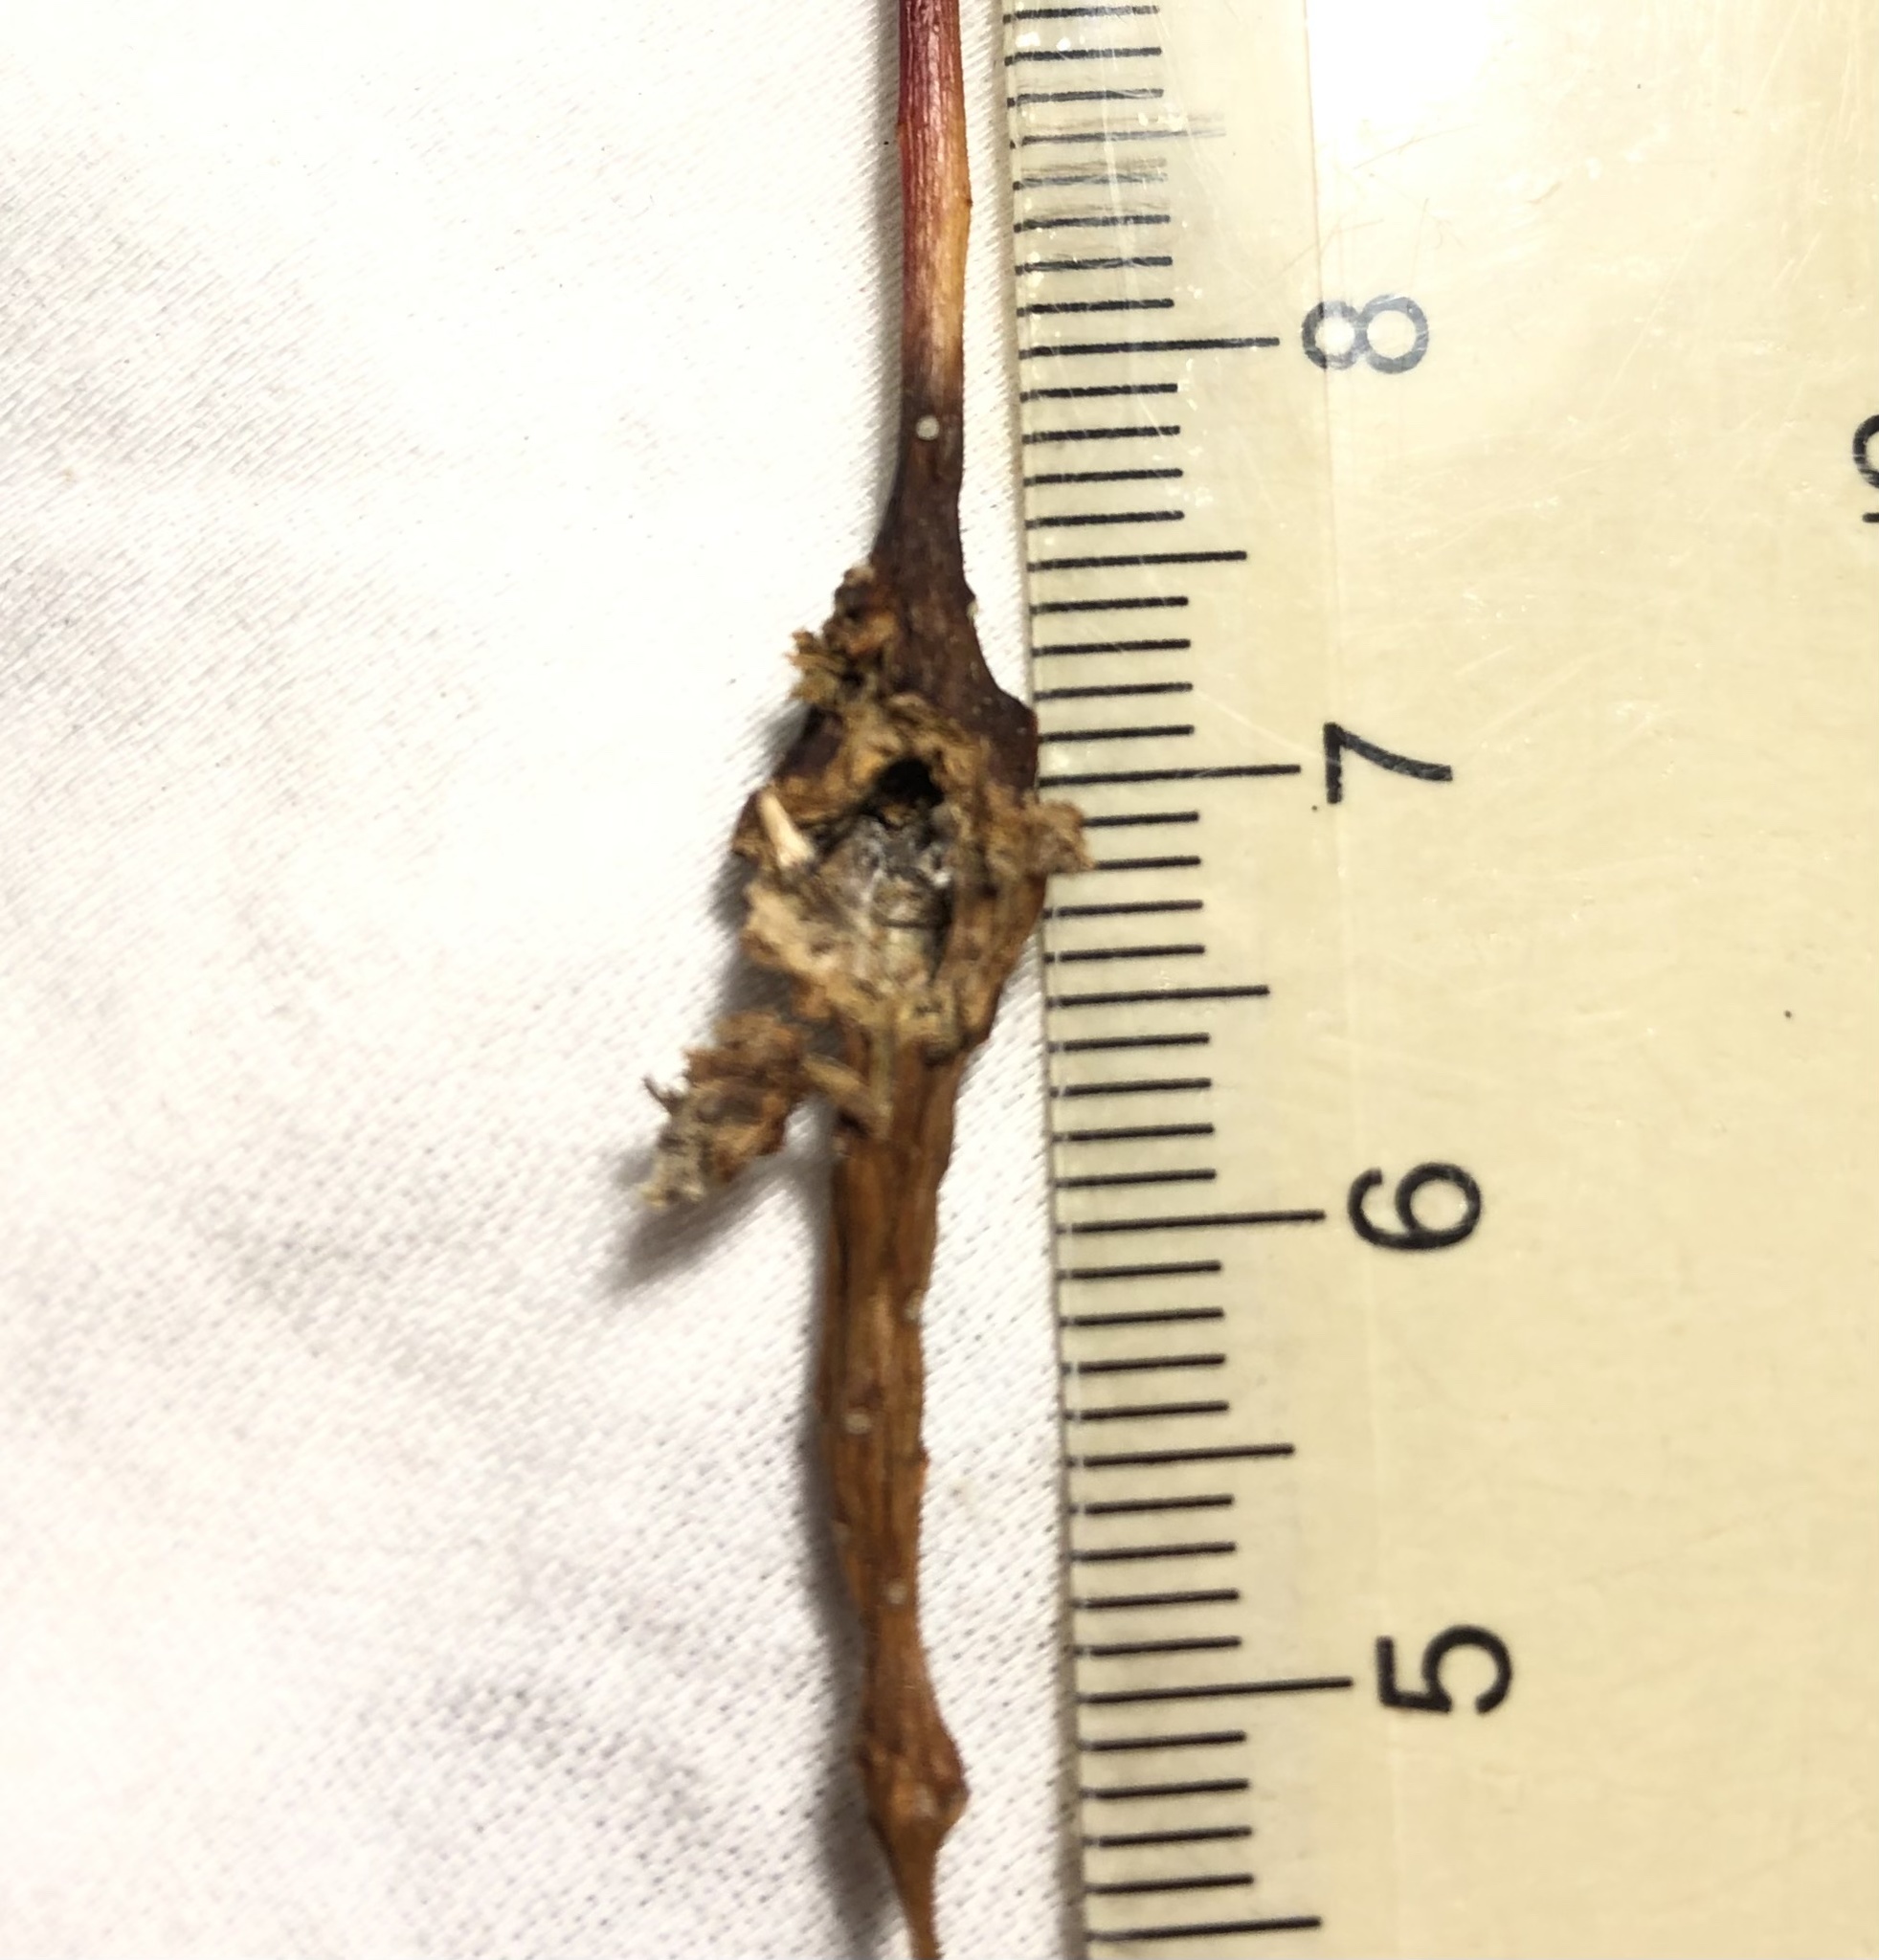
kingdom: Animalia
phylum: Arthropoda
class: Insecta
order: Diptera
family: Cecidomyiidae
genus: Contarinia
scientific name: Contarinia racemi
